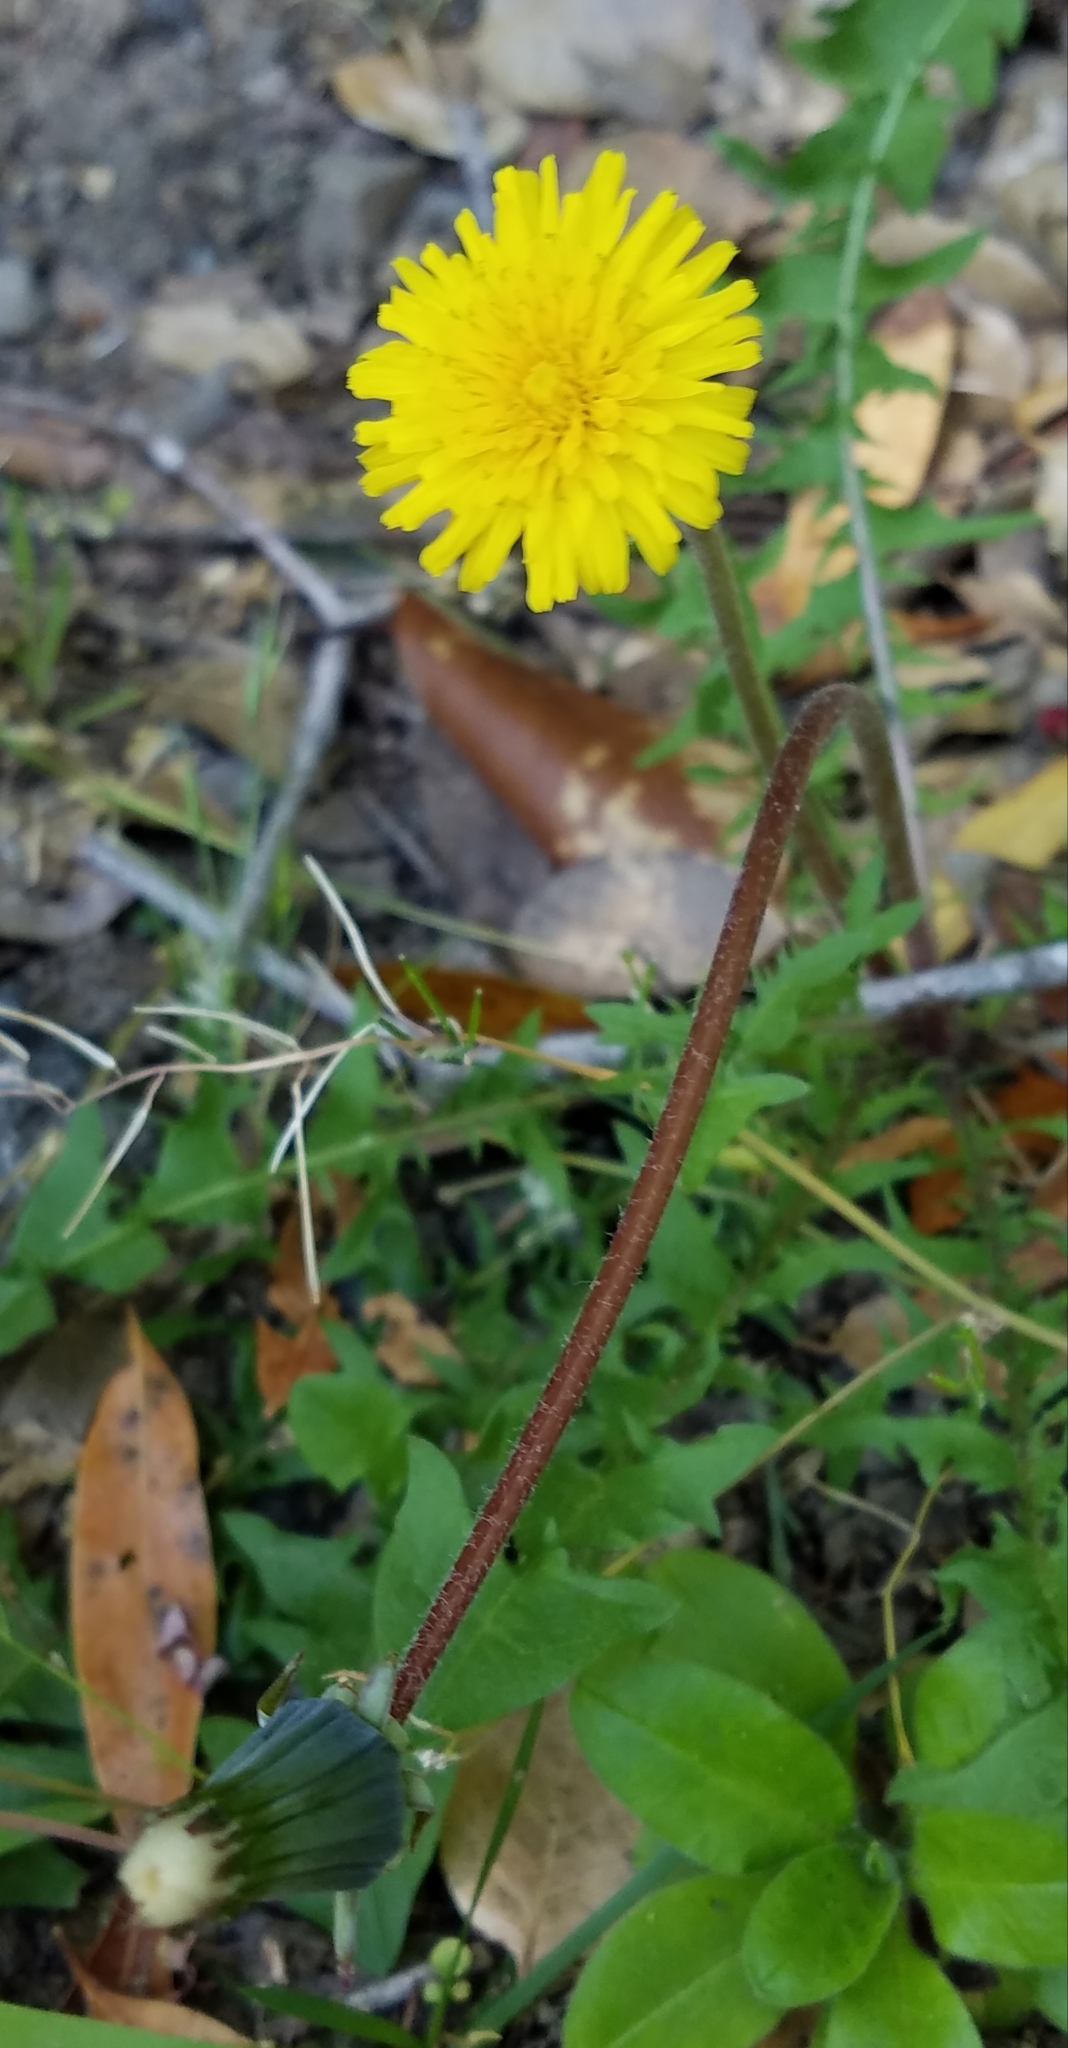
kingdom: Plantae
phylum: Tracheophyta
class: Magnoliopsida
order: Asterales
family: Asteraceae
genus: Taraxacum
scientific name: Taraxacum officinale
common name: Common dandelion
